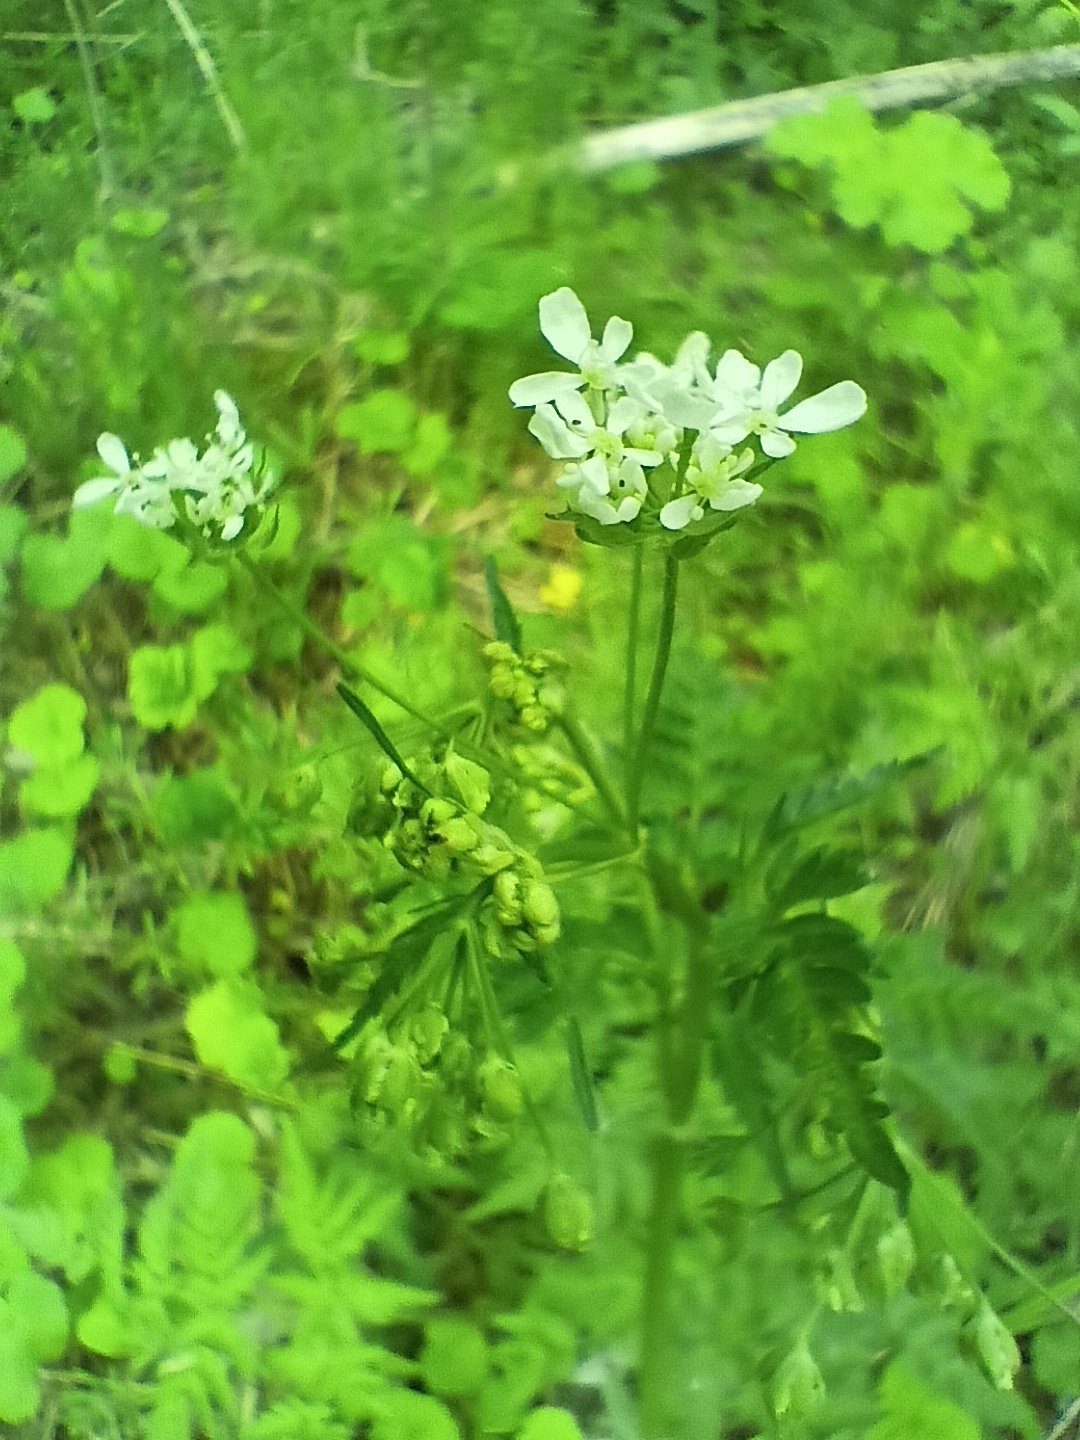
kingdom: Plantae
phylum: Tracheophyta
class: Magnoliopsida
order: Apiales
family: Apiaceae
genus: Anthriscus
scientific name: Anthriscus sylvestris
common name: Cow parsley
